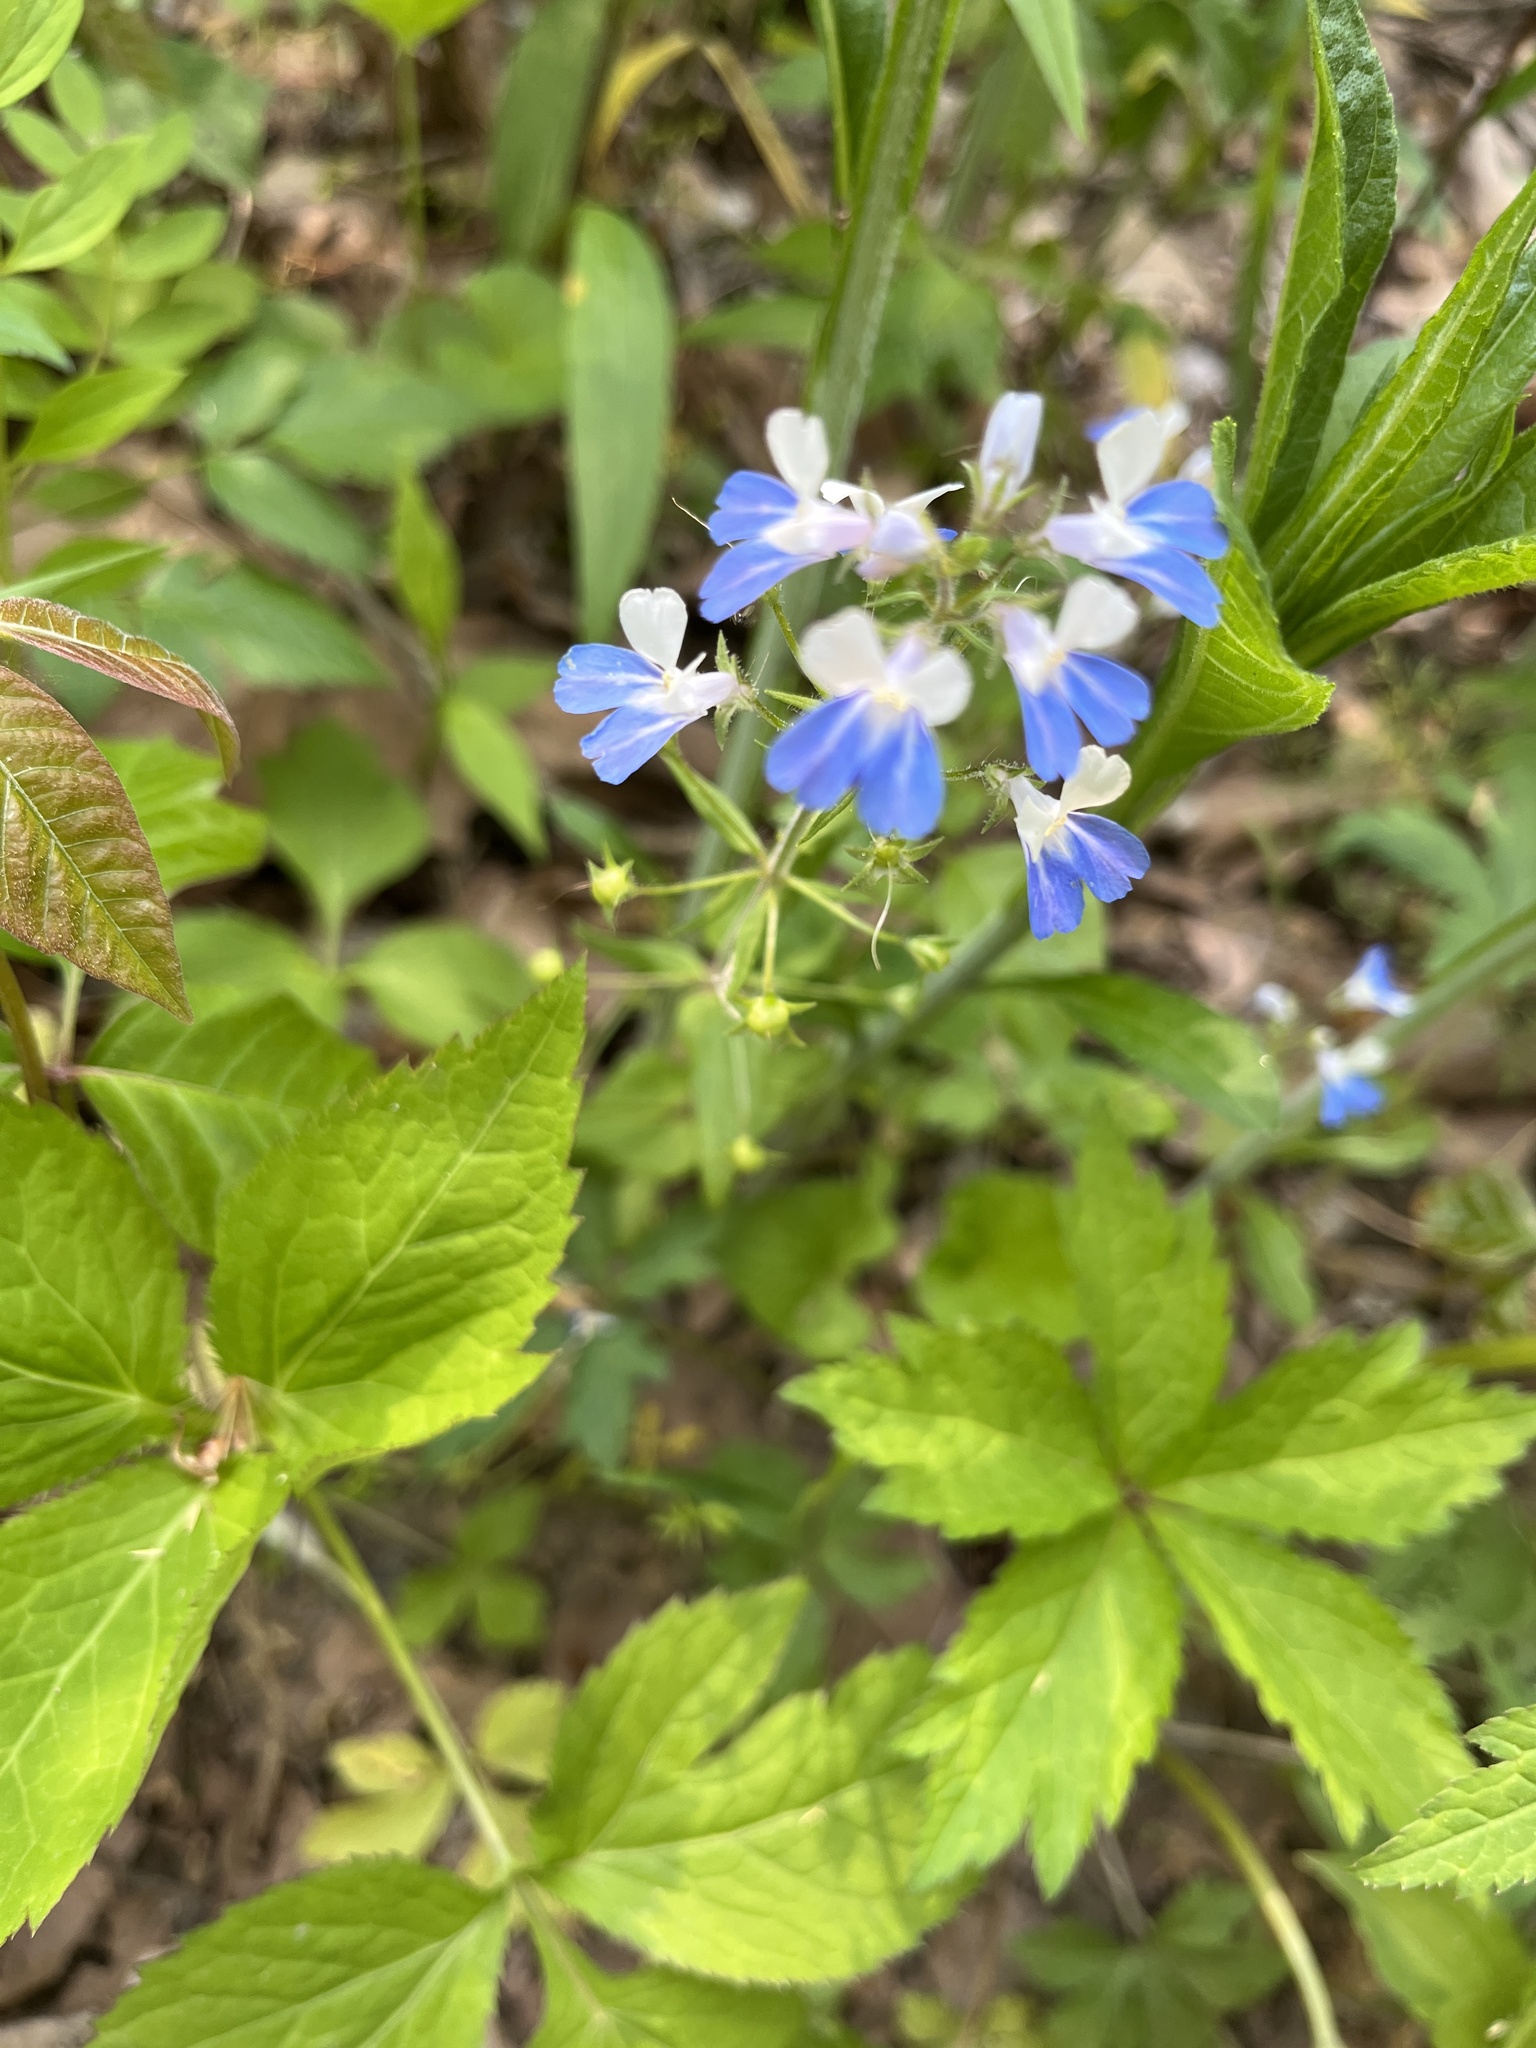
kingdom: Plantae
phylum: Tracheophyta
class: Magnoliopsida
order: Lamiales
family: Plantaginaceae
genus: Collinsia
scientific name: Collinsia verna
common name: Broad-leaved collinsia
